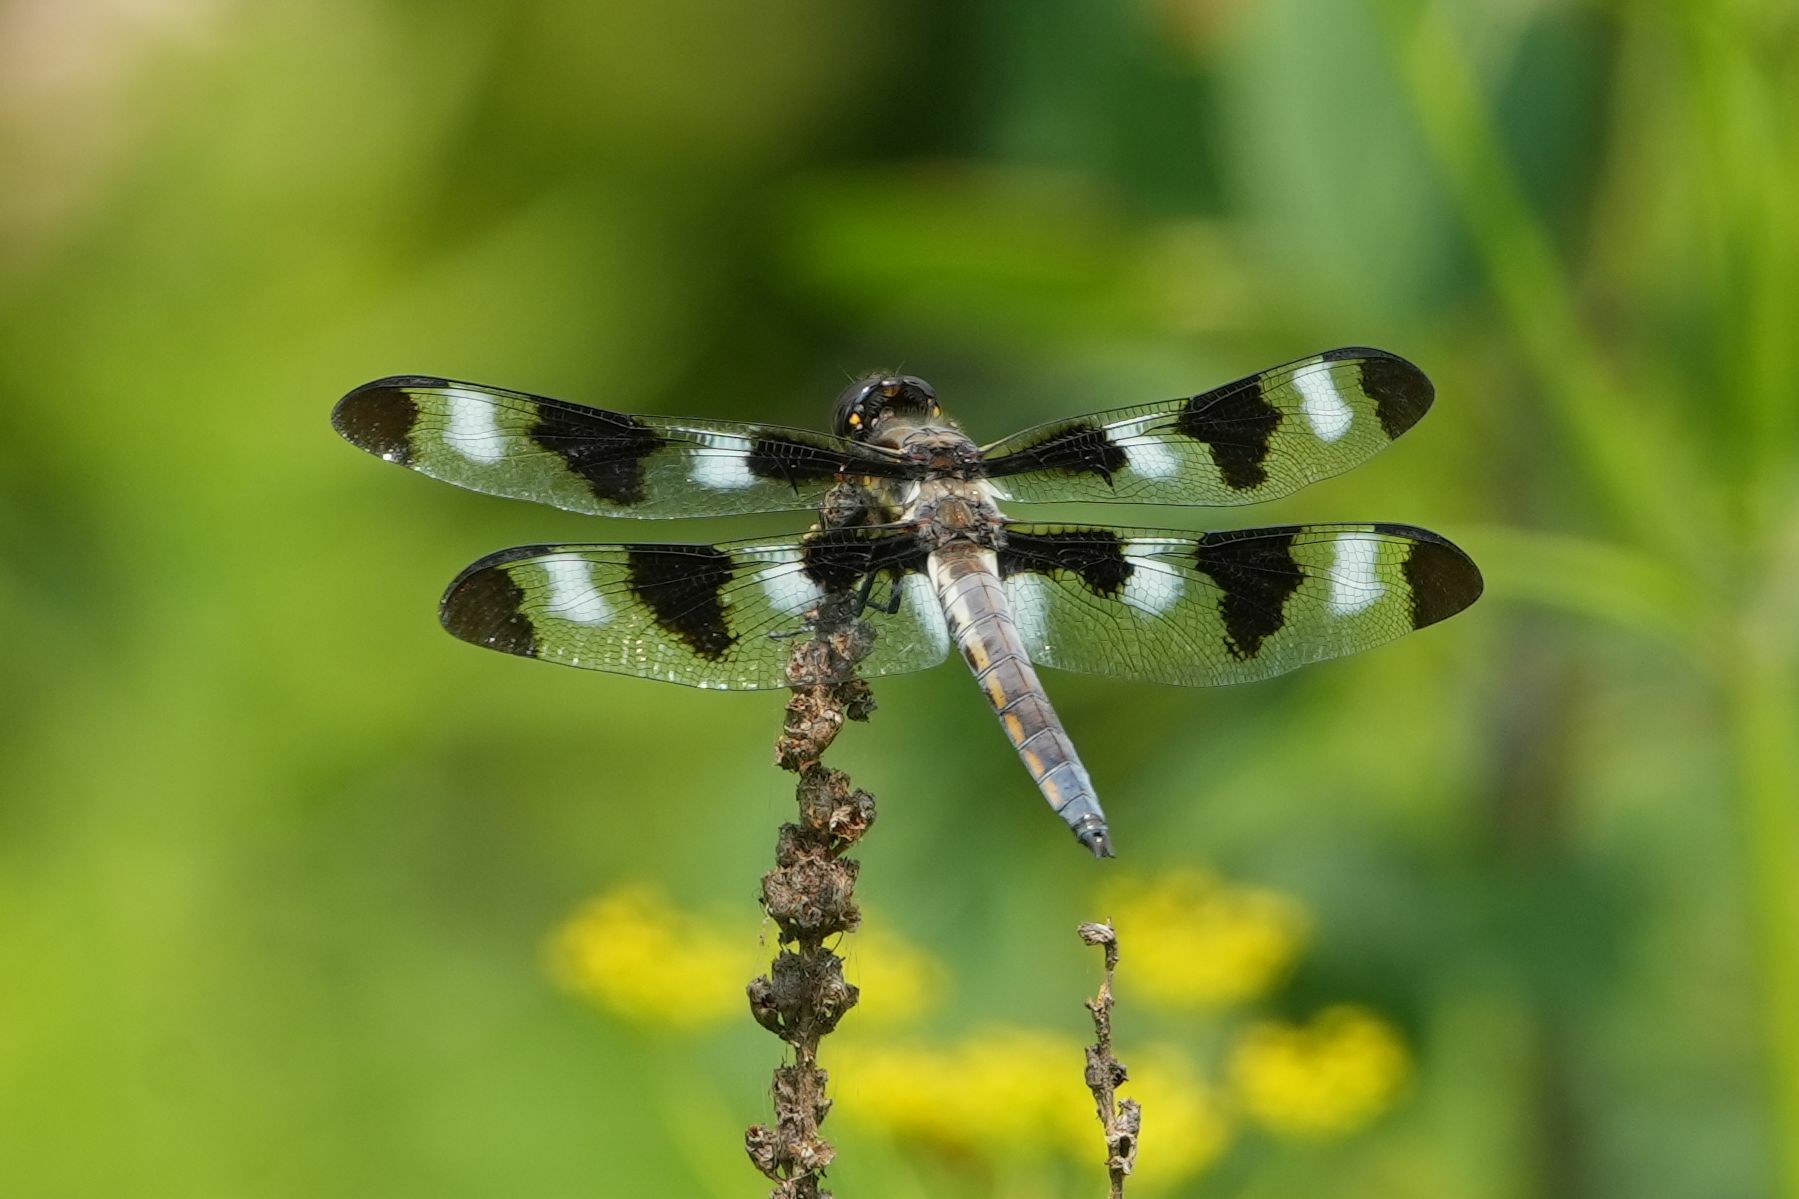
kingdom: Animalia
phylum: Arthropoda
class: Insecta
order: Odonata
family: Libellulidae
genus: Libellula
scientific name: Libellula pulchella
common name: Twelve-spotted skimmer
